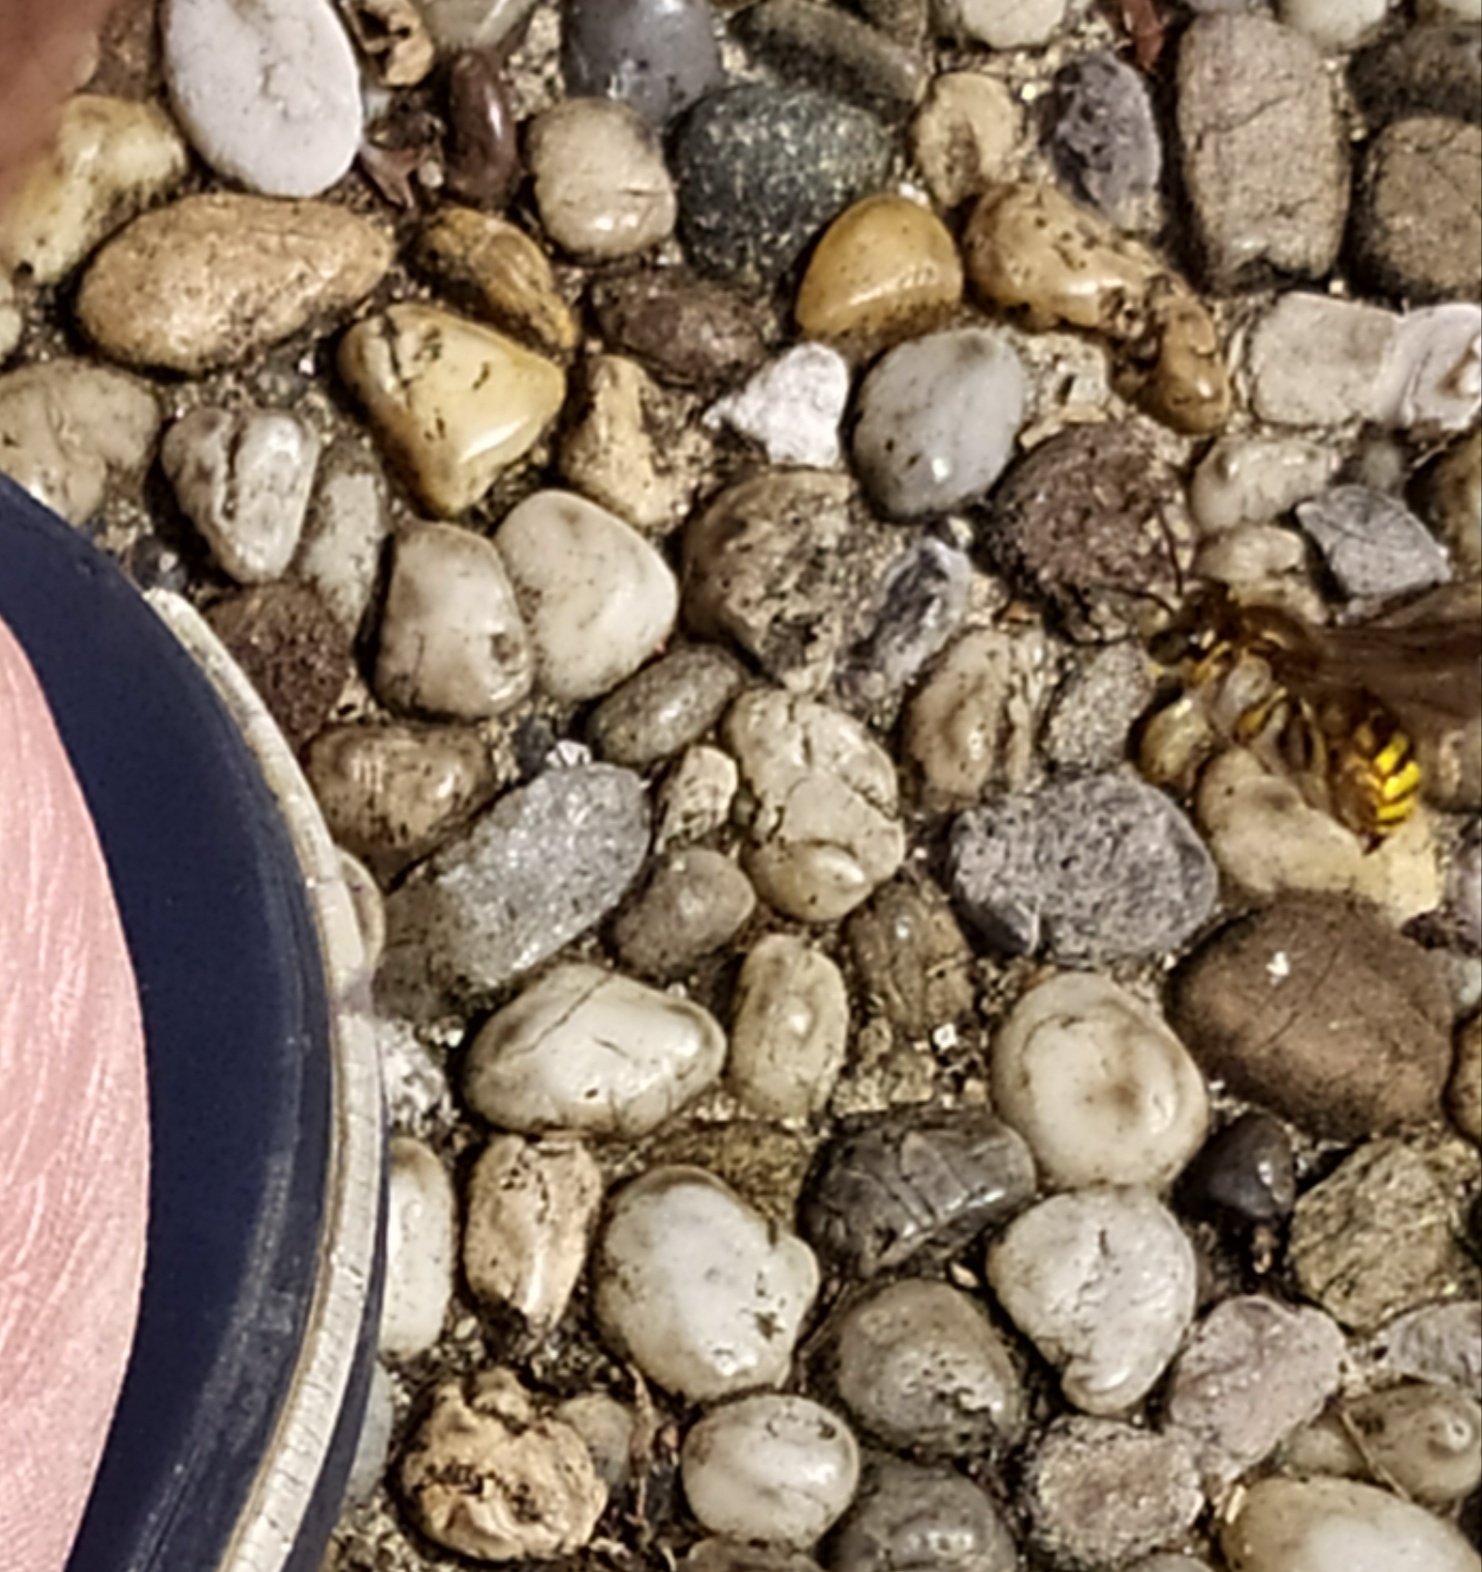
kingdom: Animalia
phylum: Arthropoda
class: Insecta
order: Hymenoptera
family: Megachilidae
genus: Anthidium
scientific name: Anthidium manicatum
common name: Wool carder bee
